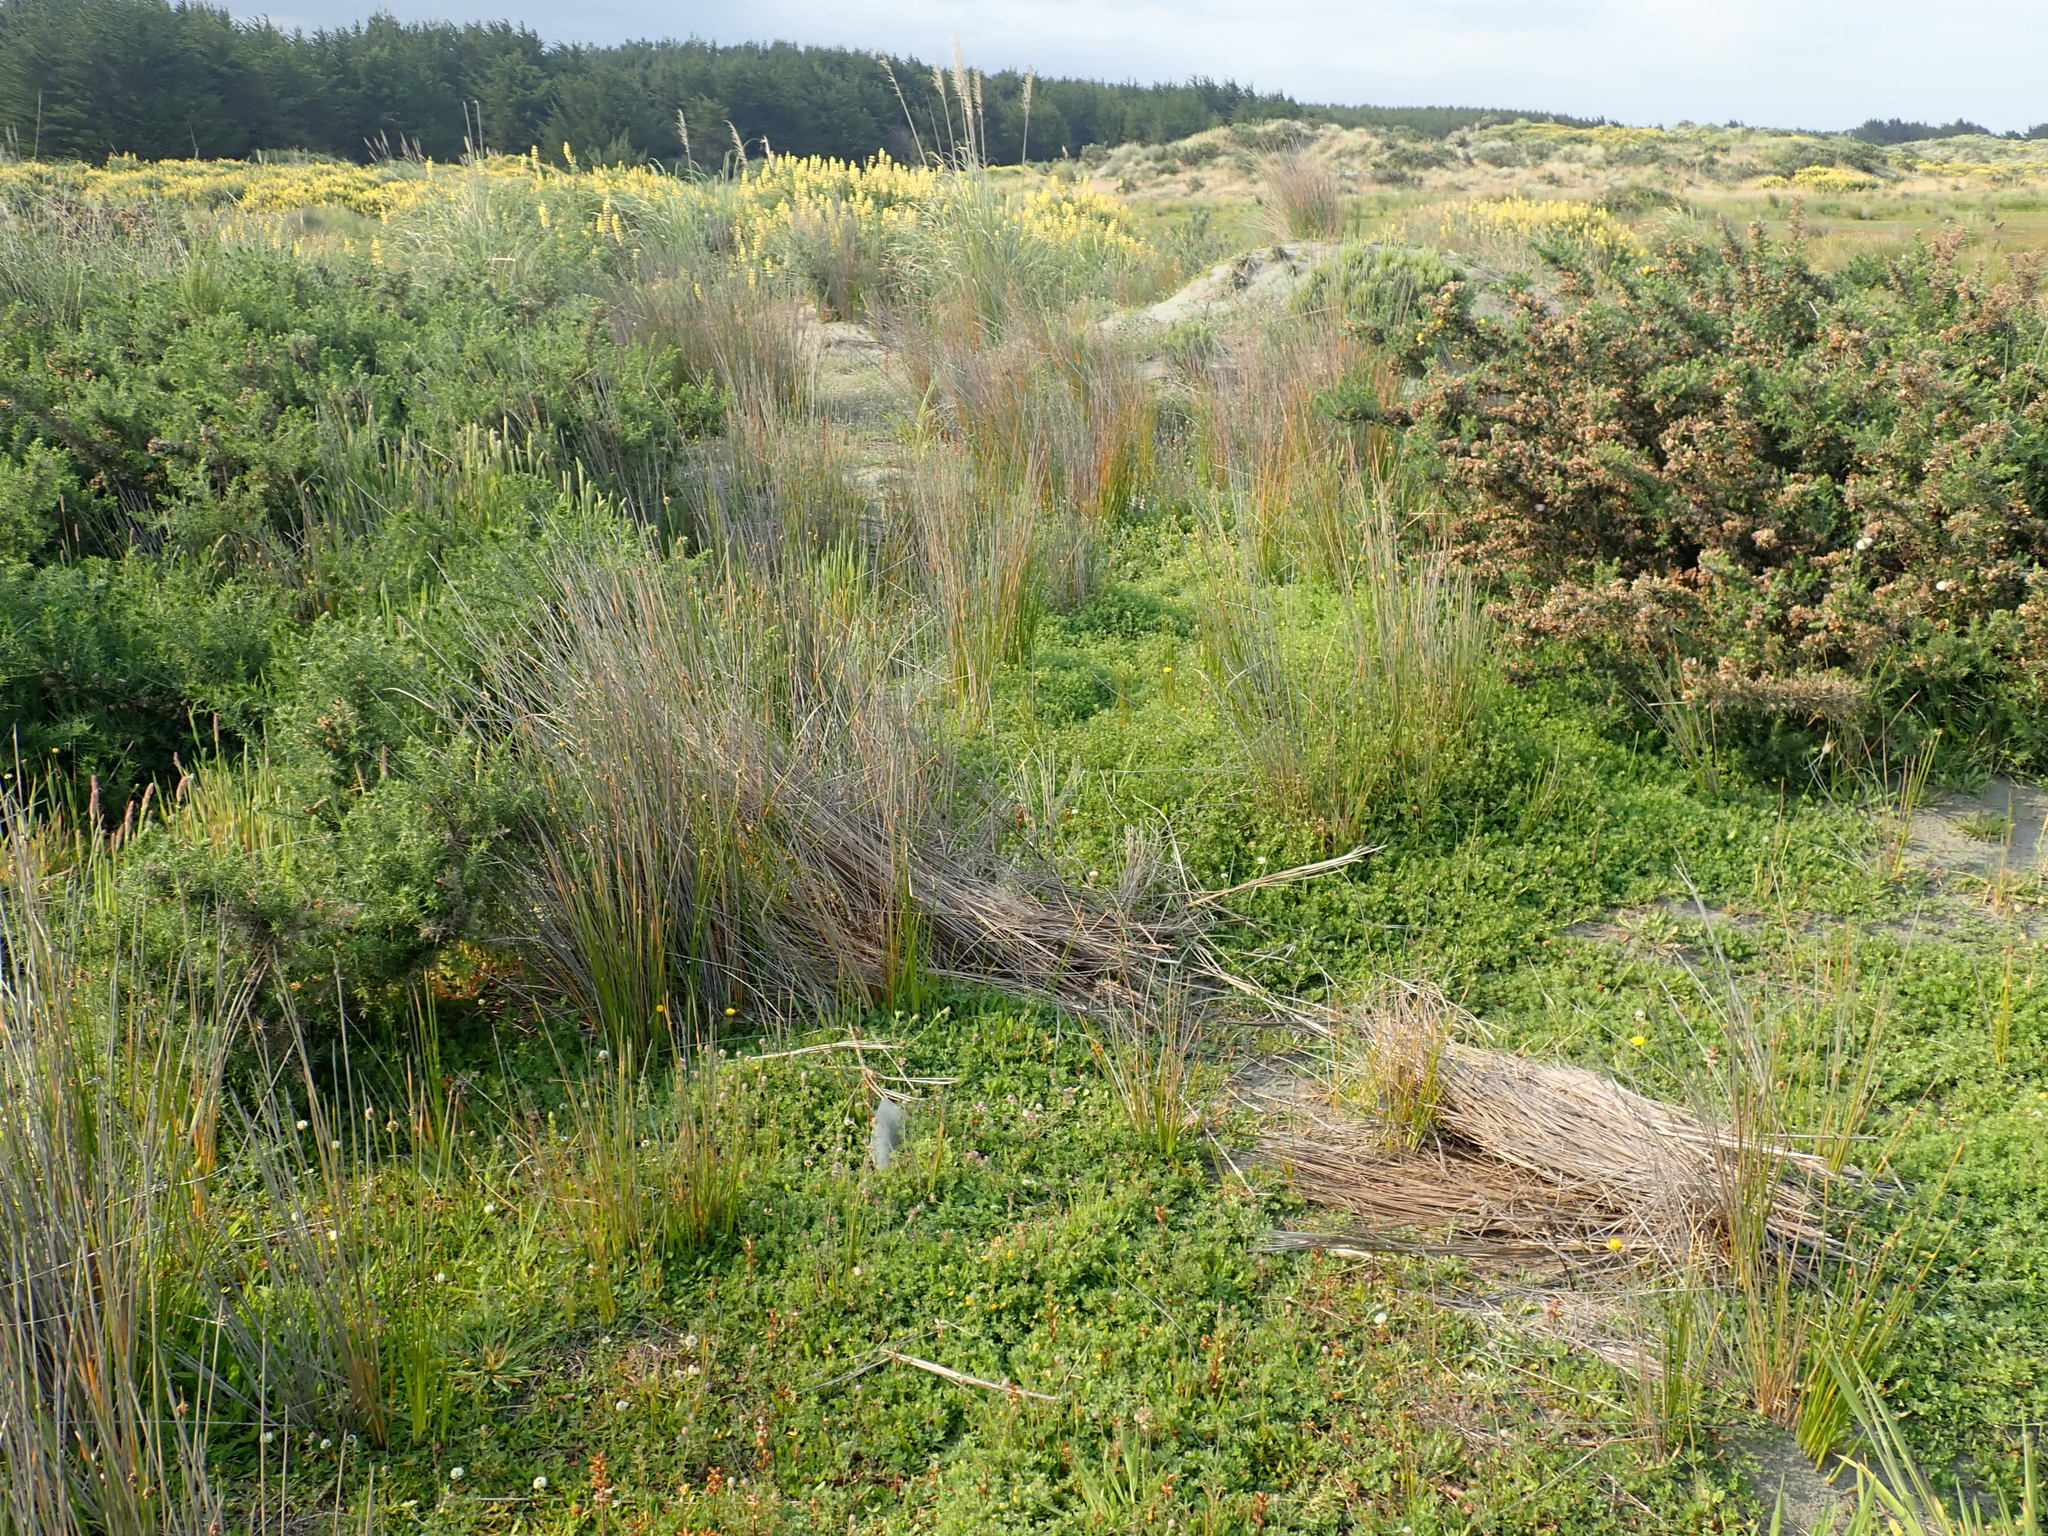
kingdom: Animalia
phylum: Arthropoda
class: Arachnida
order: Araneae
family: Porrhothelidae
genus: Porrhothele
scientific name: Porrhothele antipodiana
